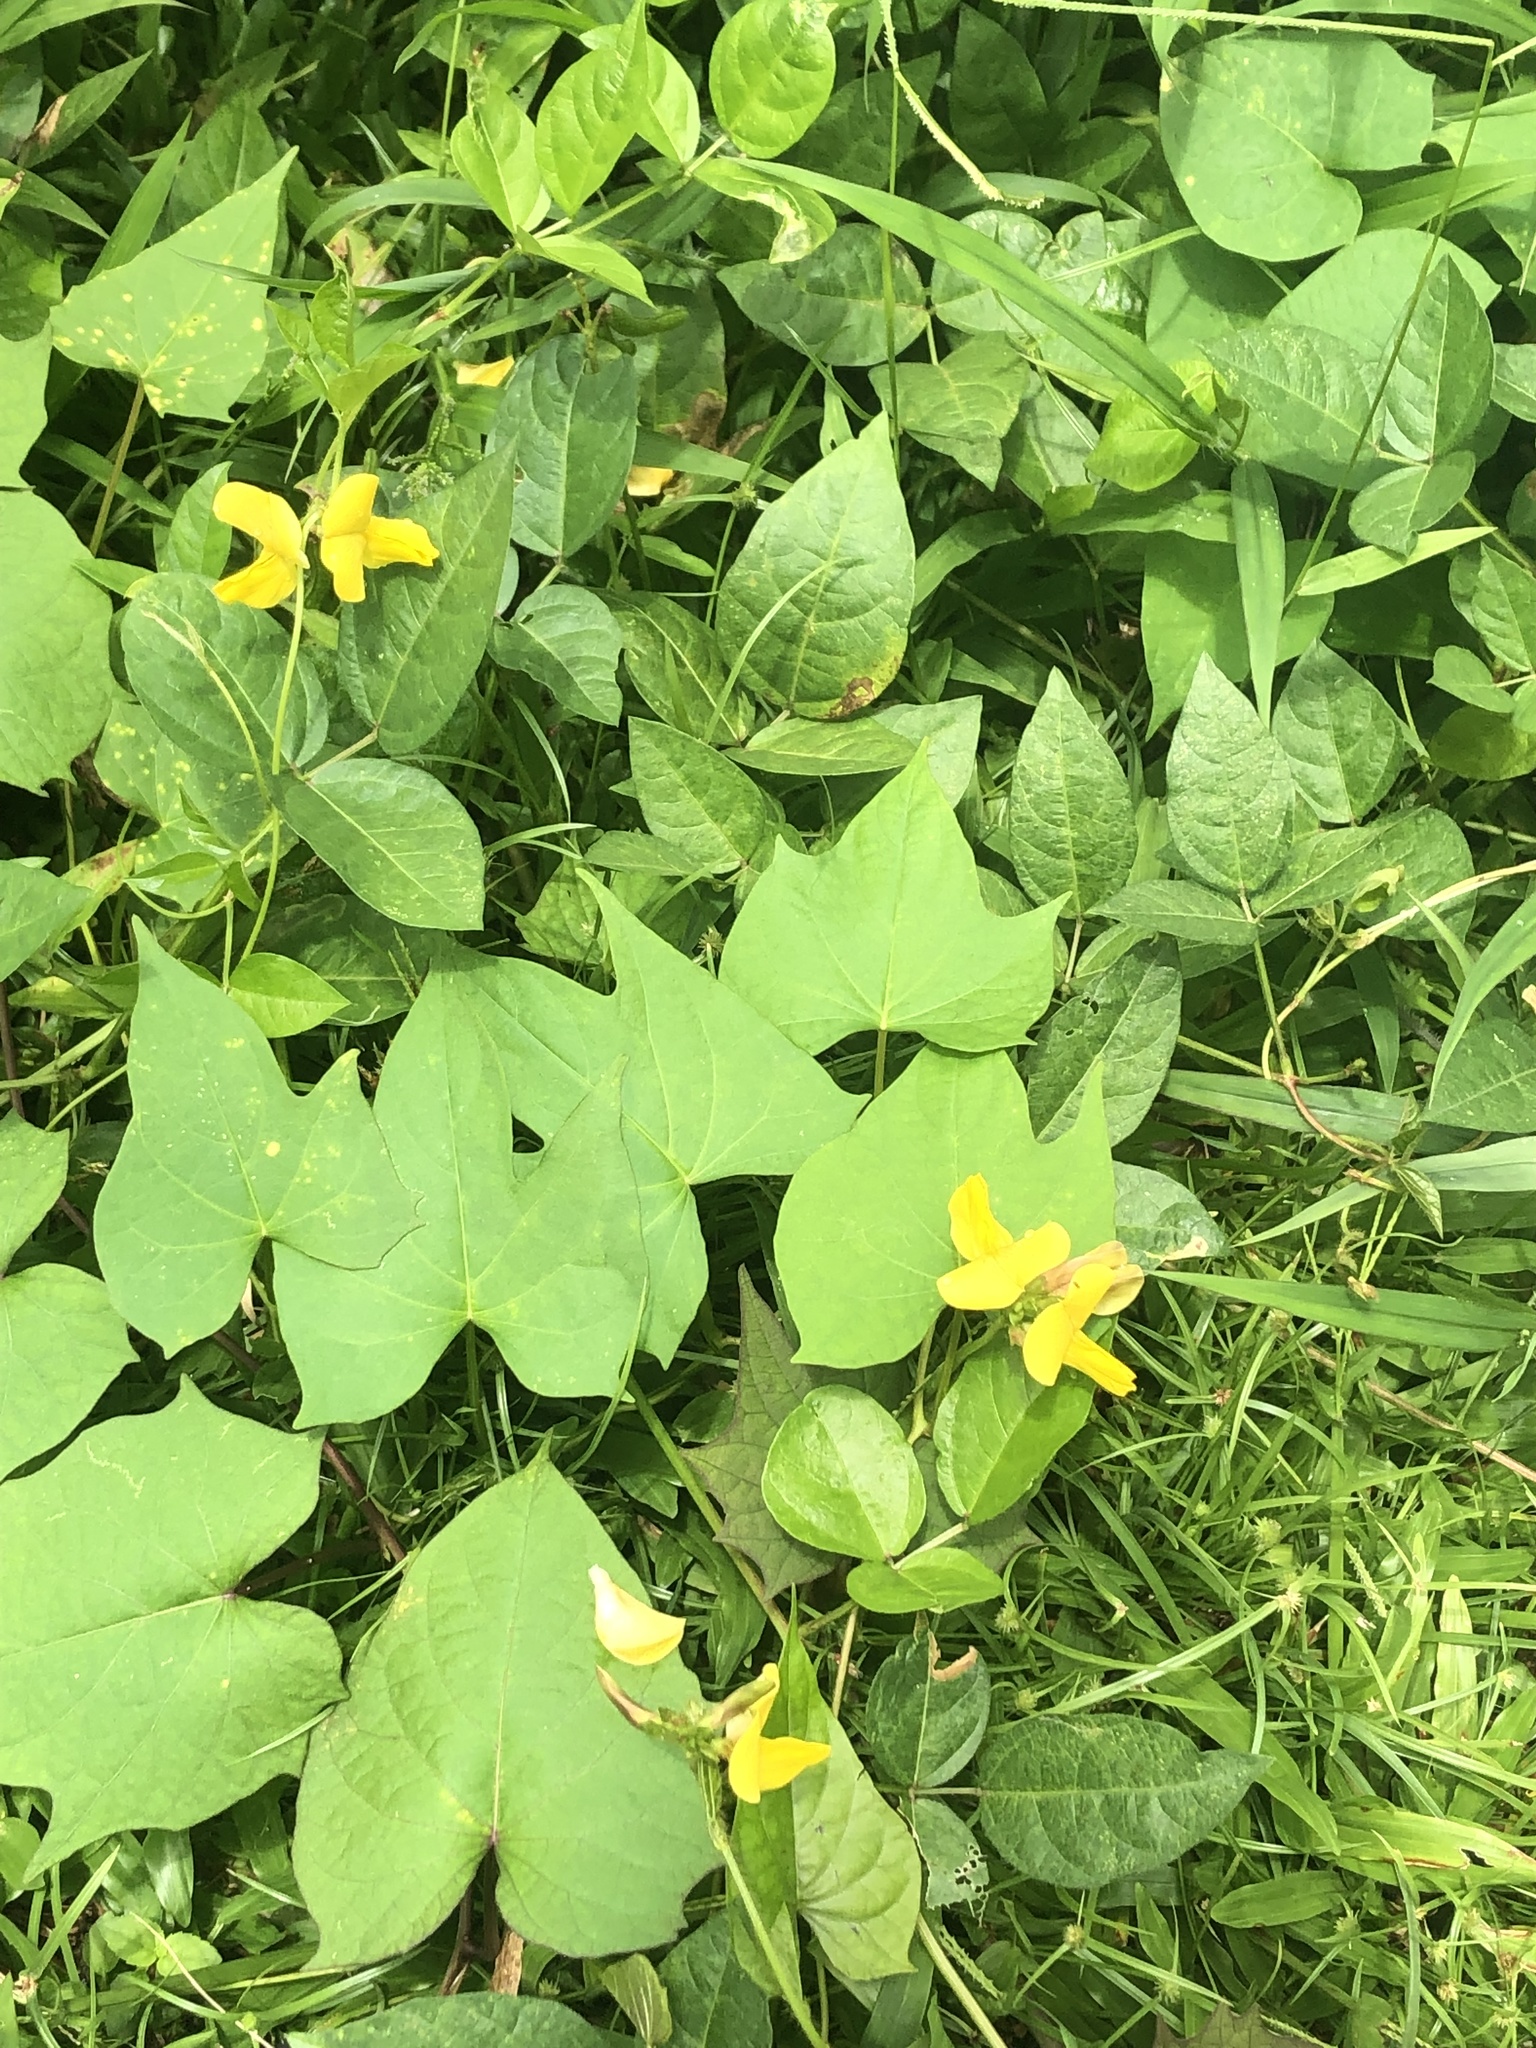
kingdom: Plantae
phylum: Tracheophyta
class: Magnoliopsida
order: Fabales
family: Fabaceae
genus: Vigna
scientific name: Vigna luteola
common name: Hairypod cowpea
